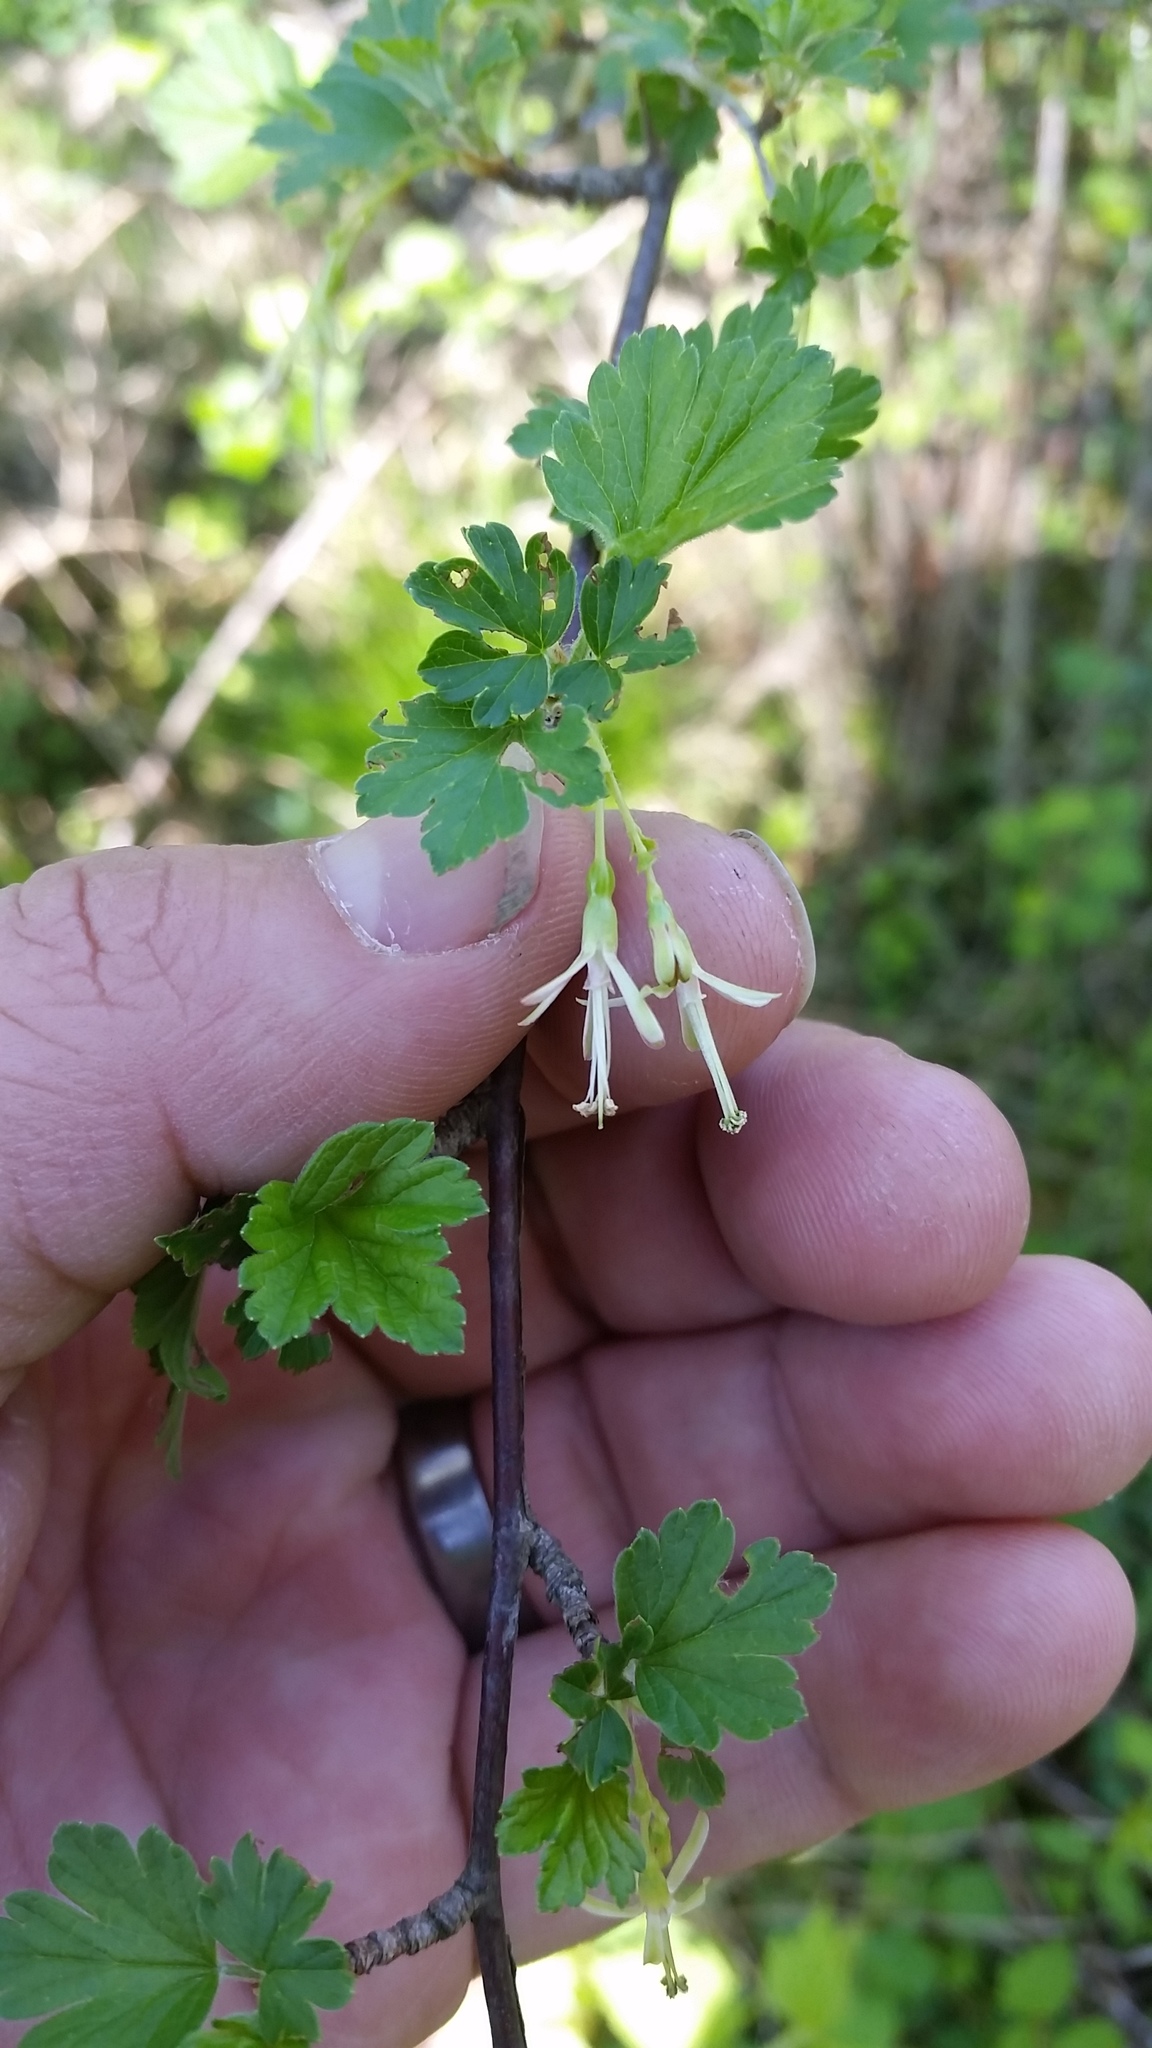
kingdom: Plantae
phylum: Tracheophyta
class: Magnoliopsida
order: Saxifragales
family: Grossulariaceae
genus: Ribes
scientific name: Ribes missouriense
